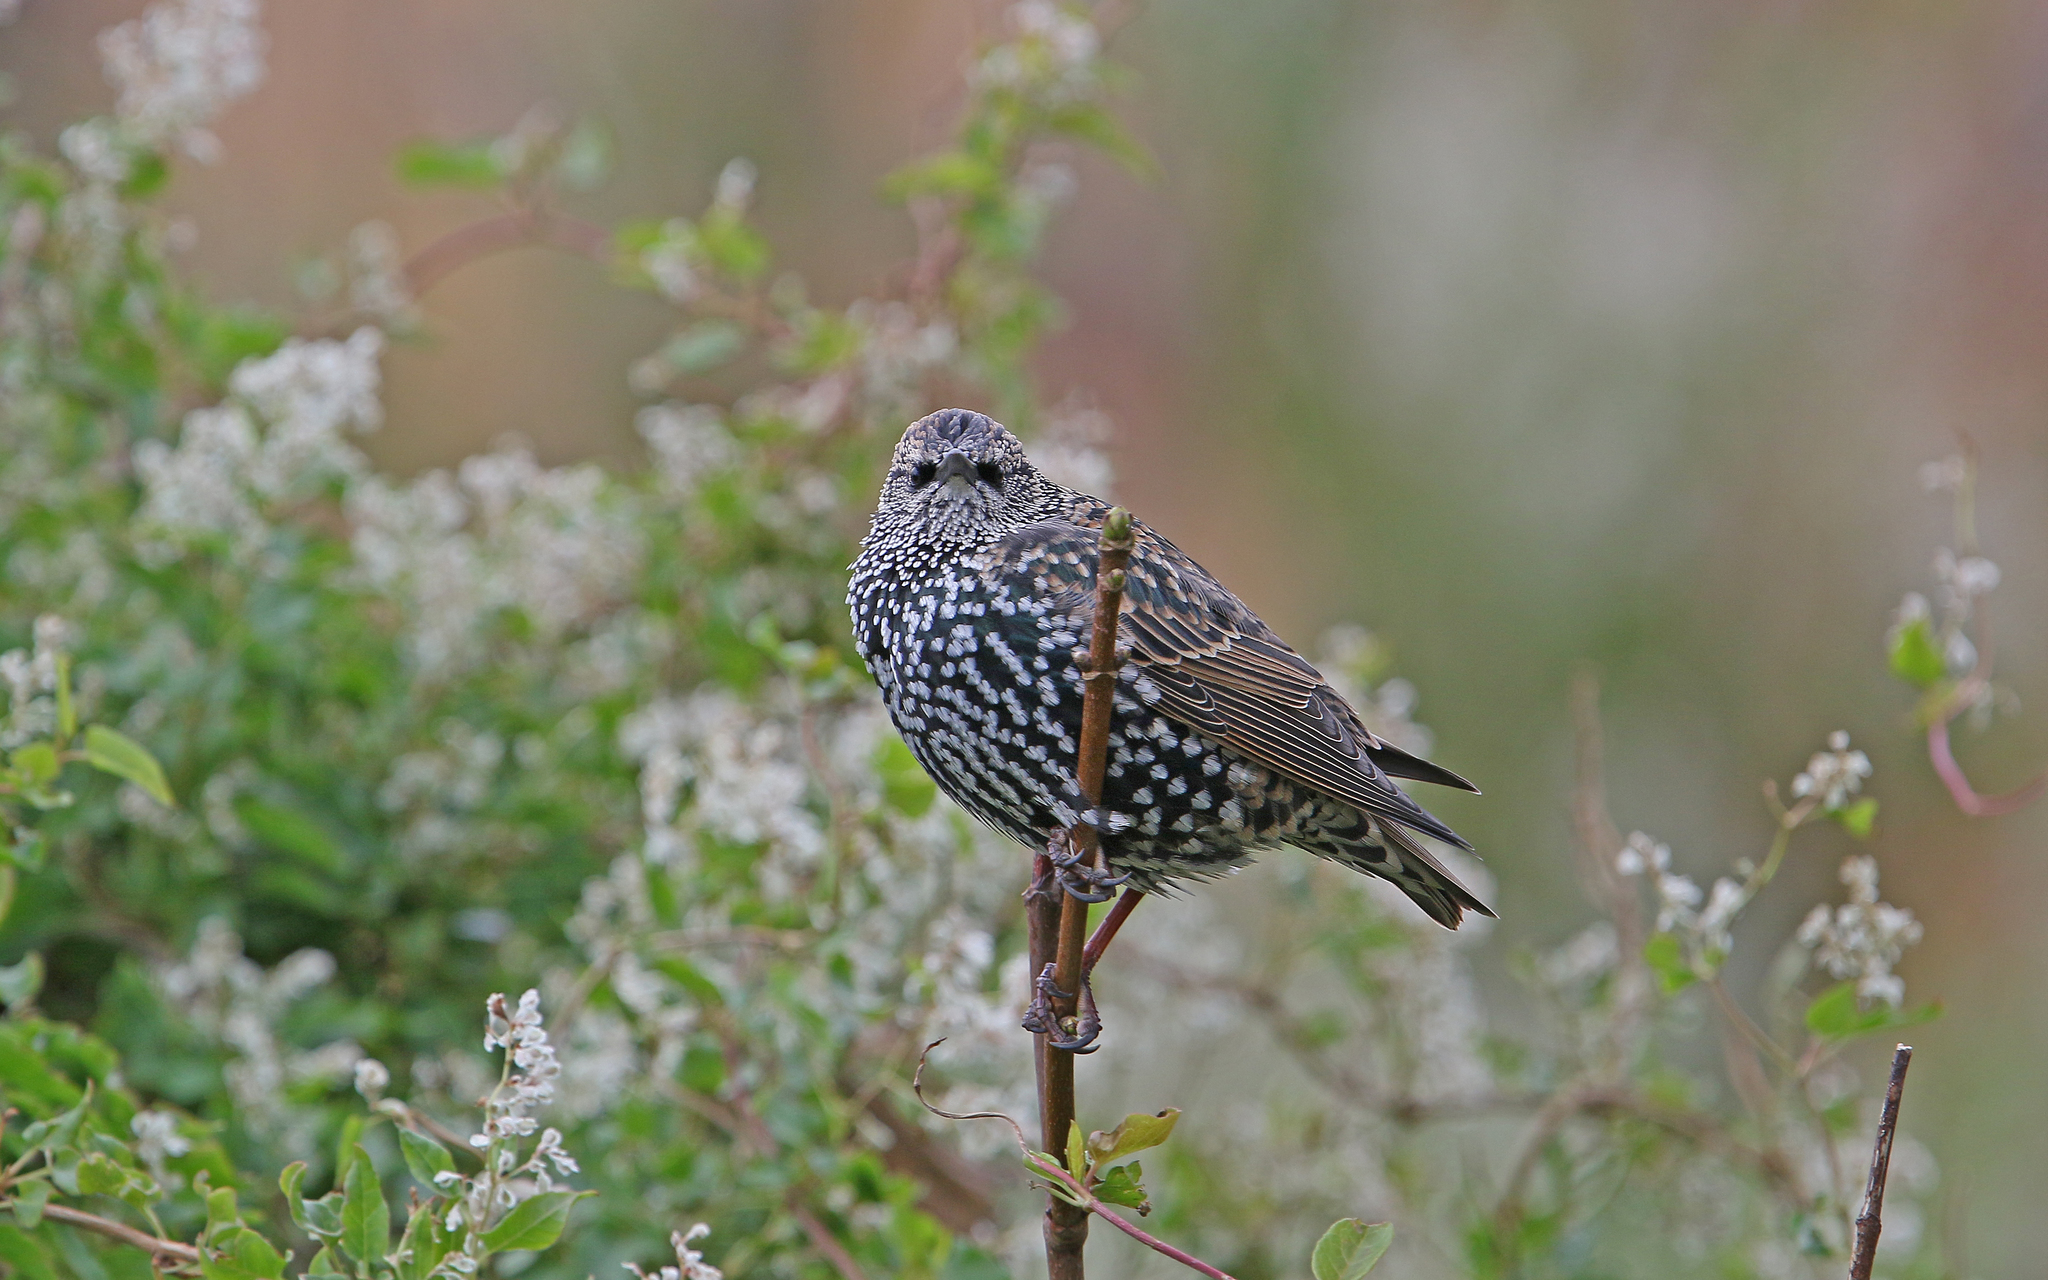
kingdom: Animalia
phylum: Chordata
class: Aves
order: Passeriformes
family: Sturnidae
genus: Sturnus
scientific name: Sturnus vulgaris
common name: Common starling
